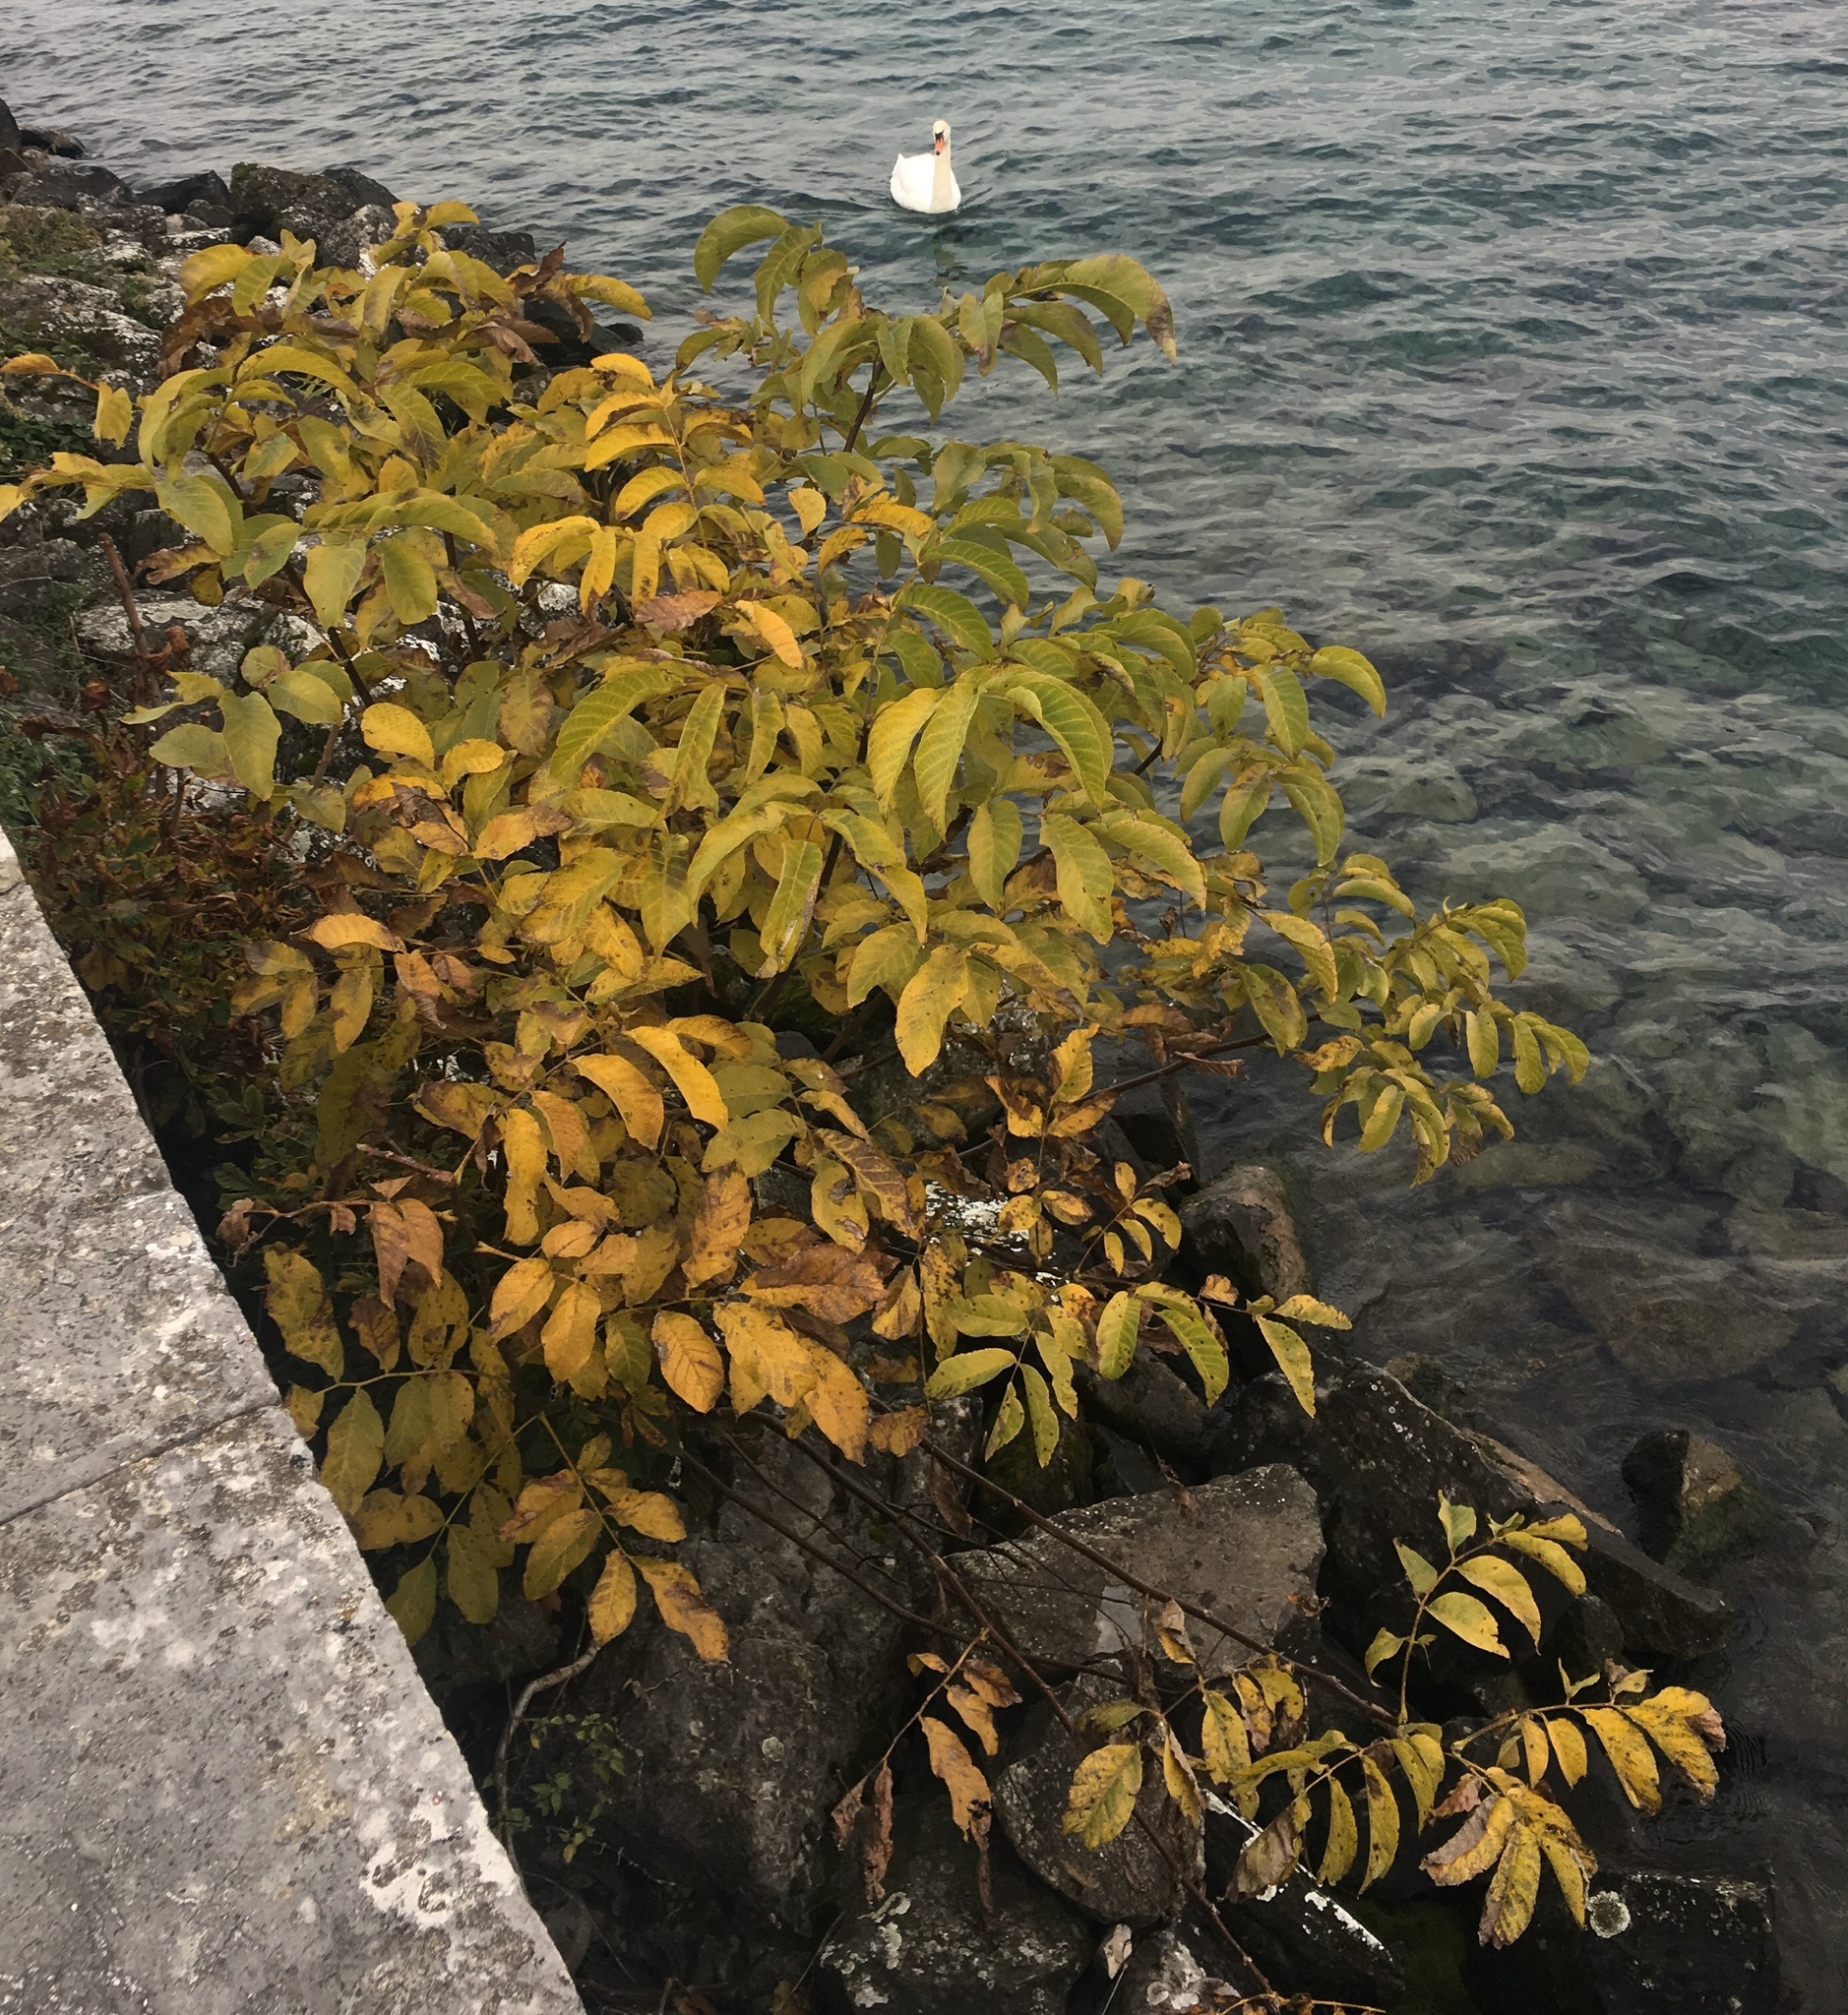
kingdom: Plantae
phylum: Tracheophyta
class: Magnoliopsida
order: Fagales
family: Juglandaceae
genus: Juglans
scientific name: Juglans regia
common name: Walnut
